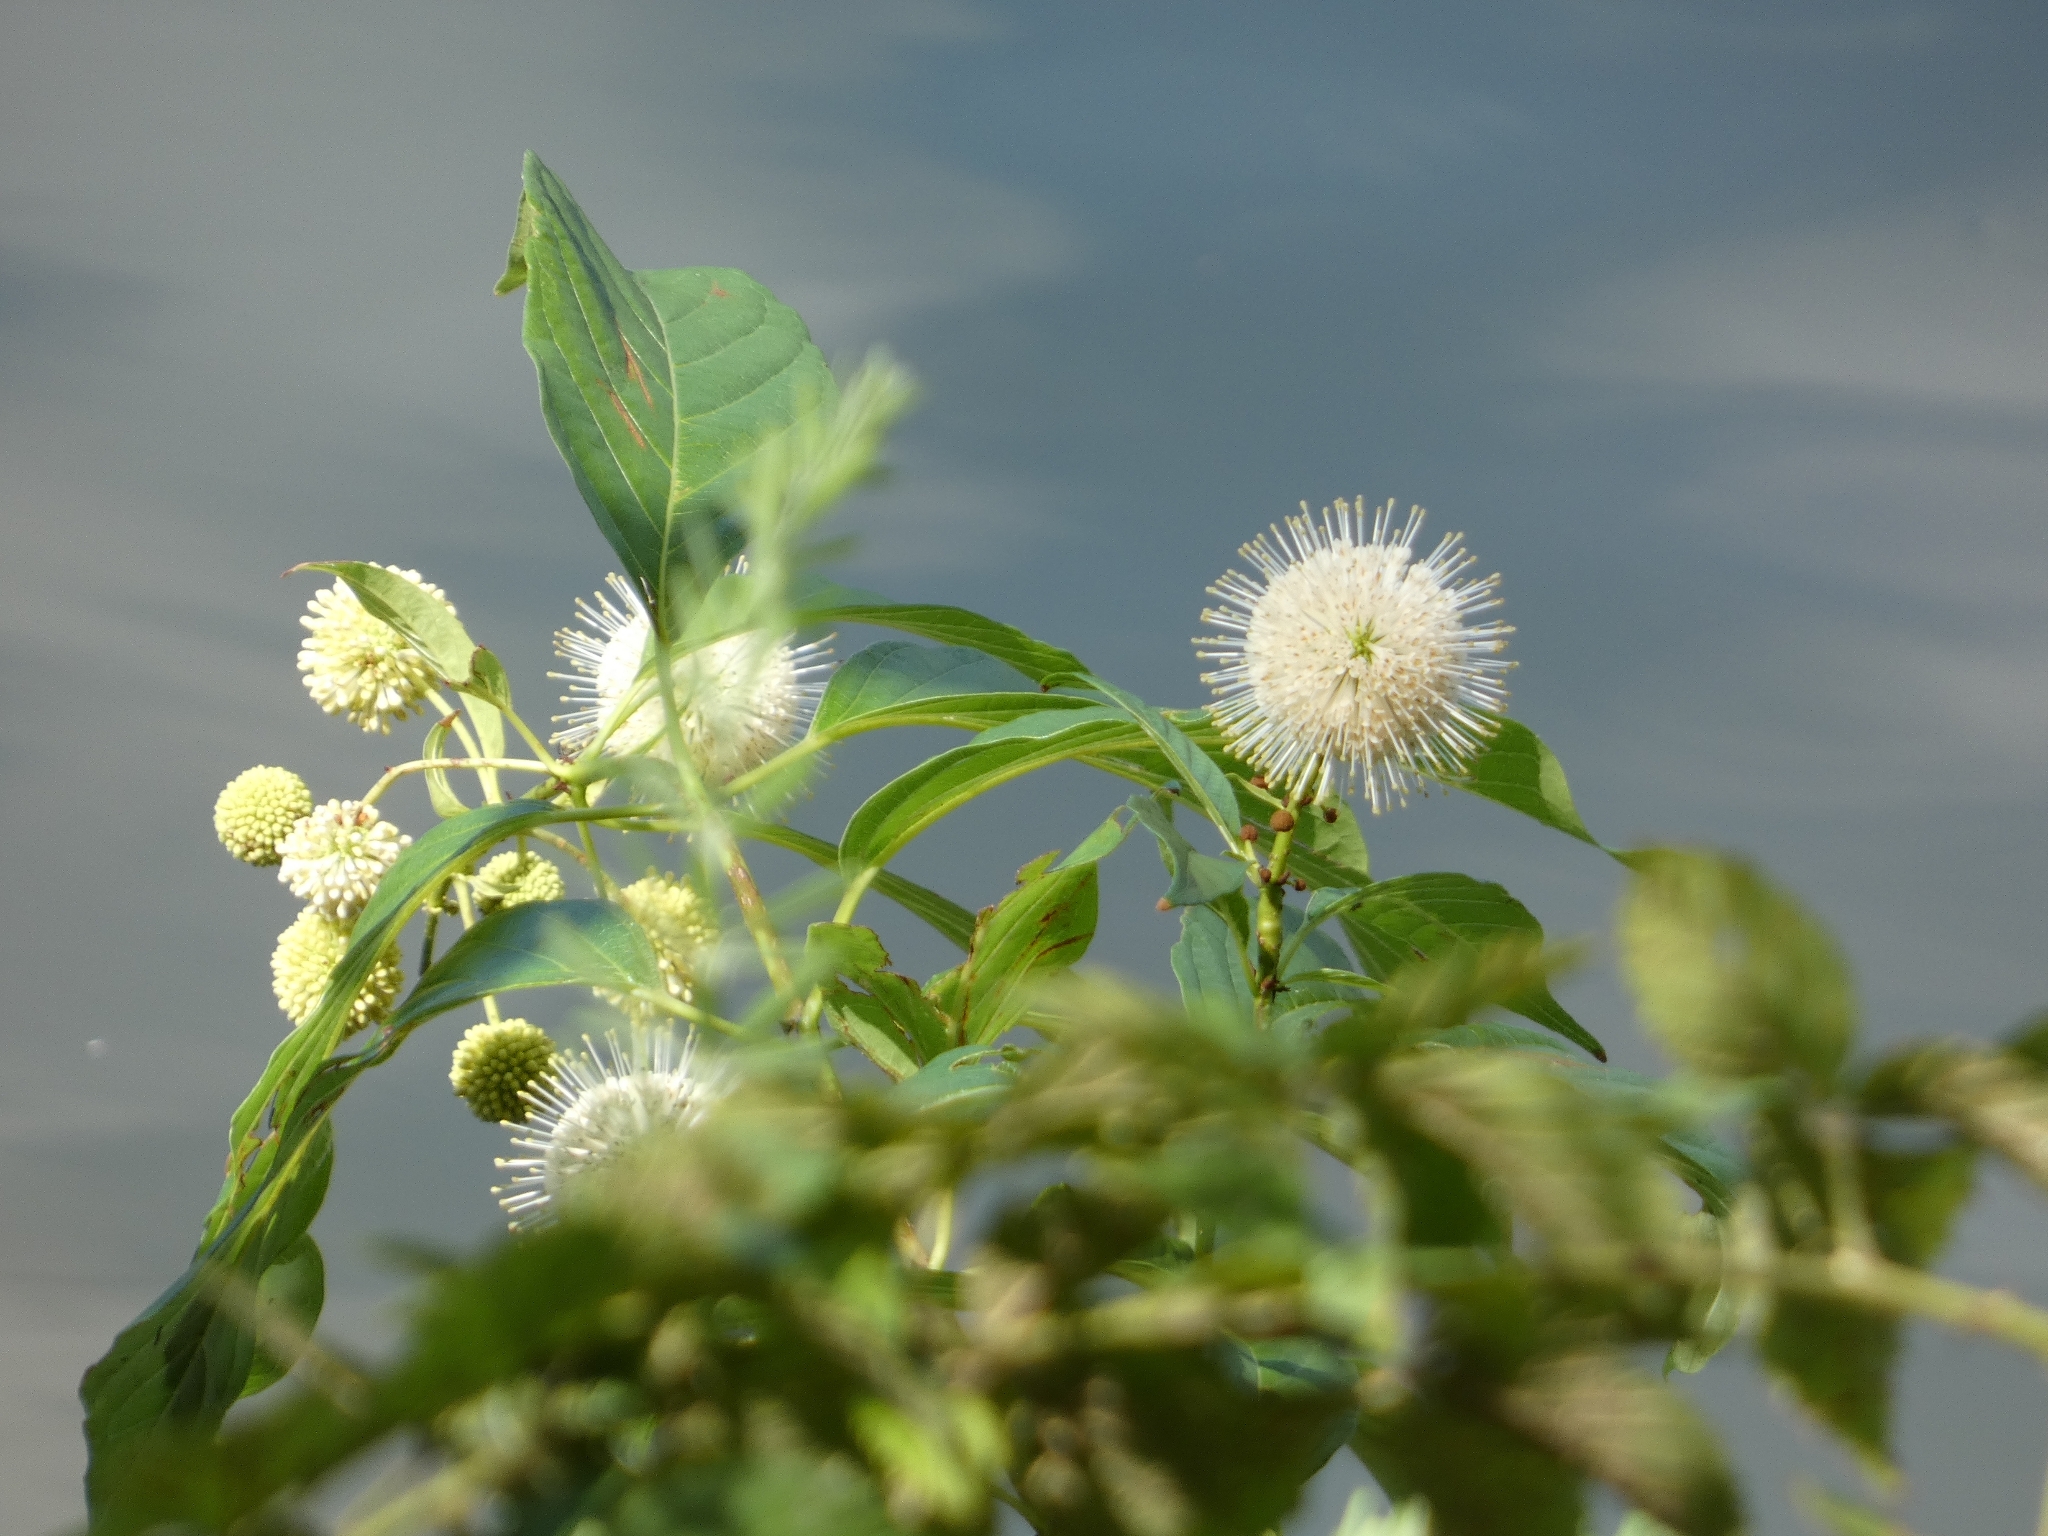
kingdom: Plantae
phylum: Tracheophyta
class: Magnoliopsida
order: Gentianales
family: Rubiaceae
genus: Cephalanthus
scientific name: Cephalanthus occidentalis
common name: Button-willow
